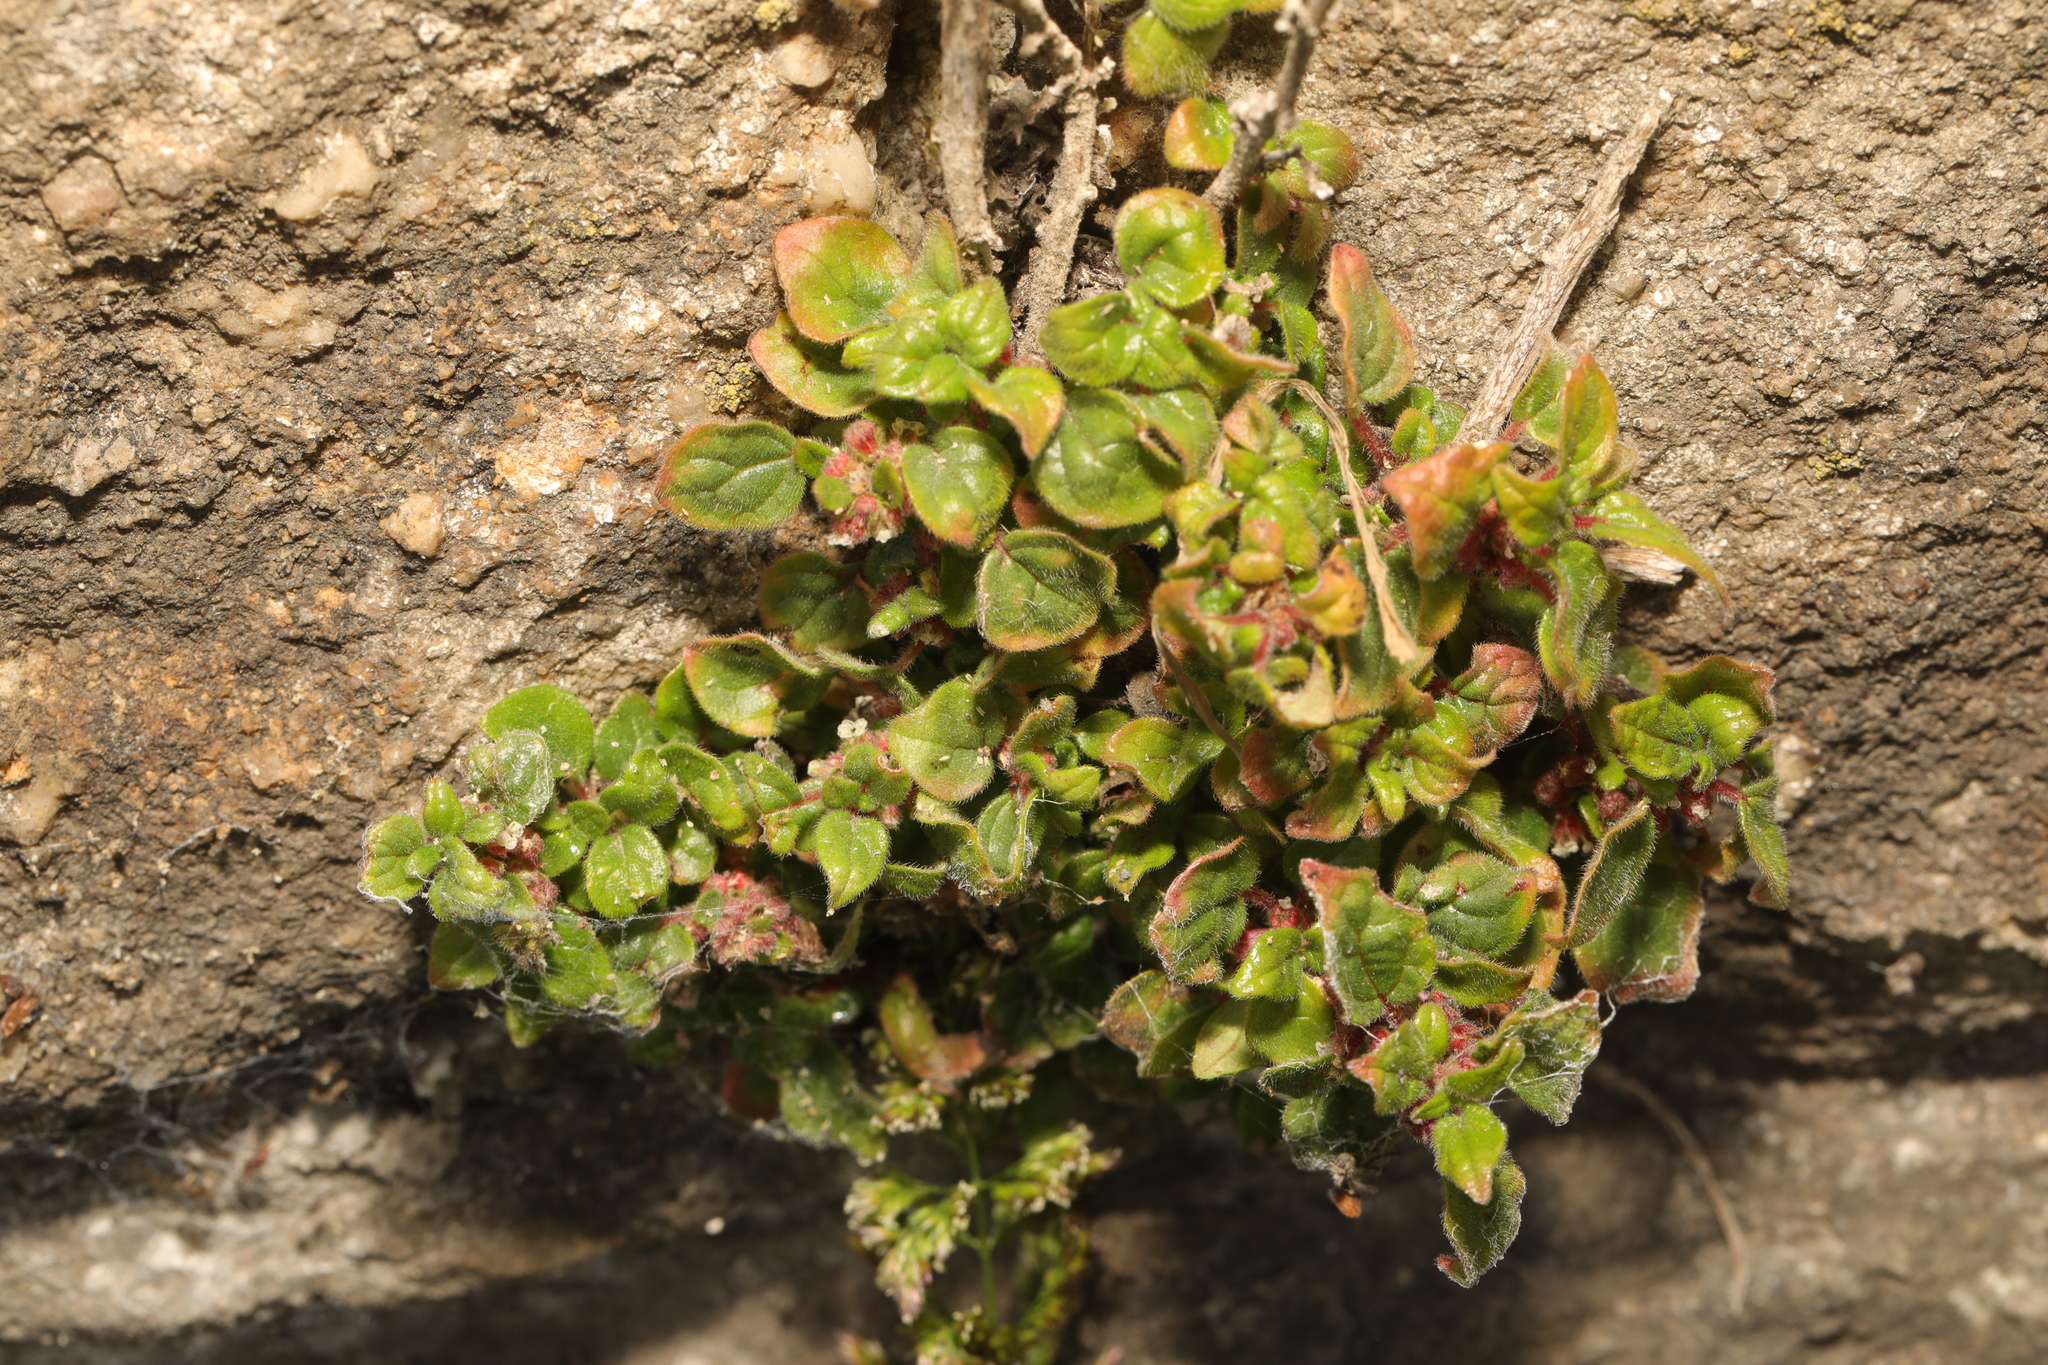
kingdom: Plantae
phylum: Tracheophyta
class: Magnoliopsida
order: Rosales
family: Urticaceae
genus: Parietaria
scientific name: Parietaria judaica
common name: Pellitory-of-the-wall
